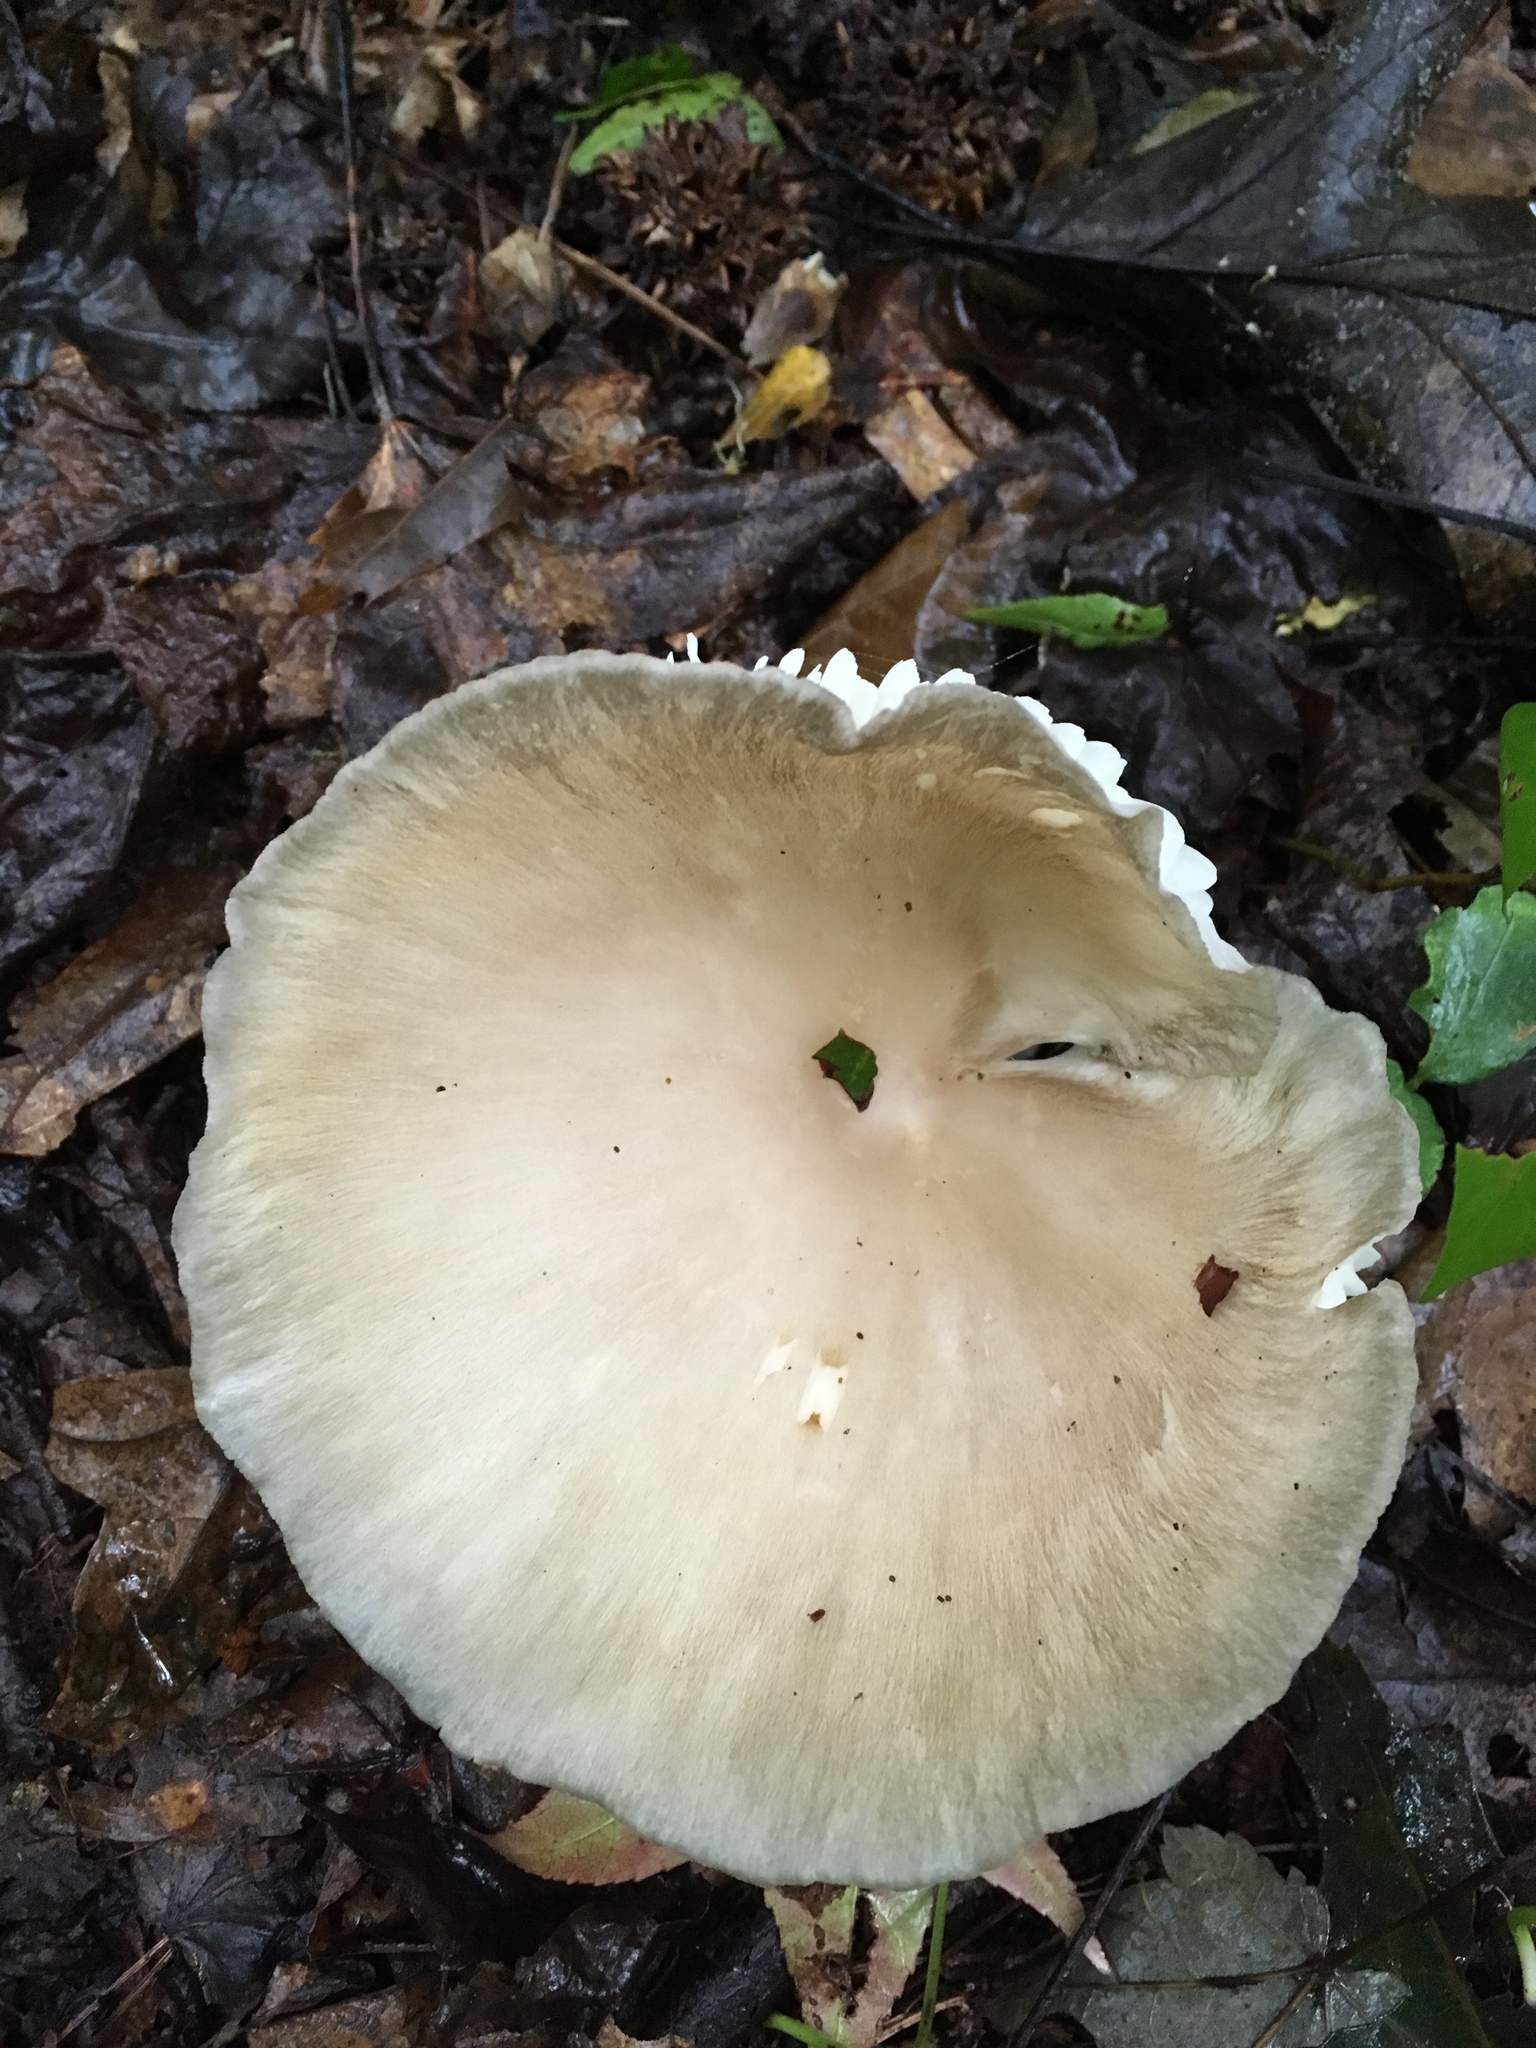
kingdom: Fungi
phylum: Basidiomycota
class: Agaricomycetes
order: Agaricales
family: Tricholomataceae
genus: Megacollybia
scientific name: Megacollybia rodmanii
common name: Eastern american platterful mushroom
